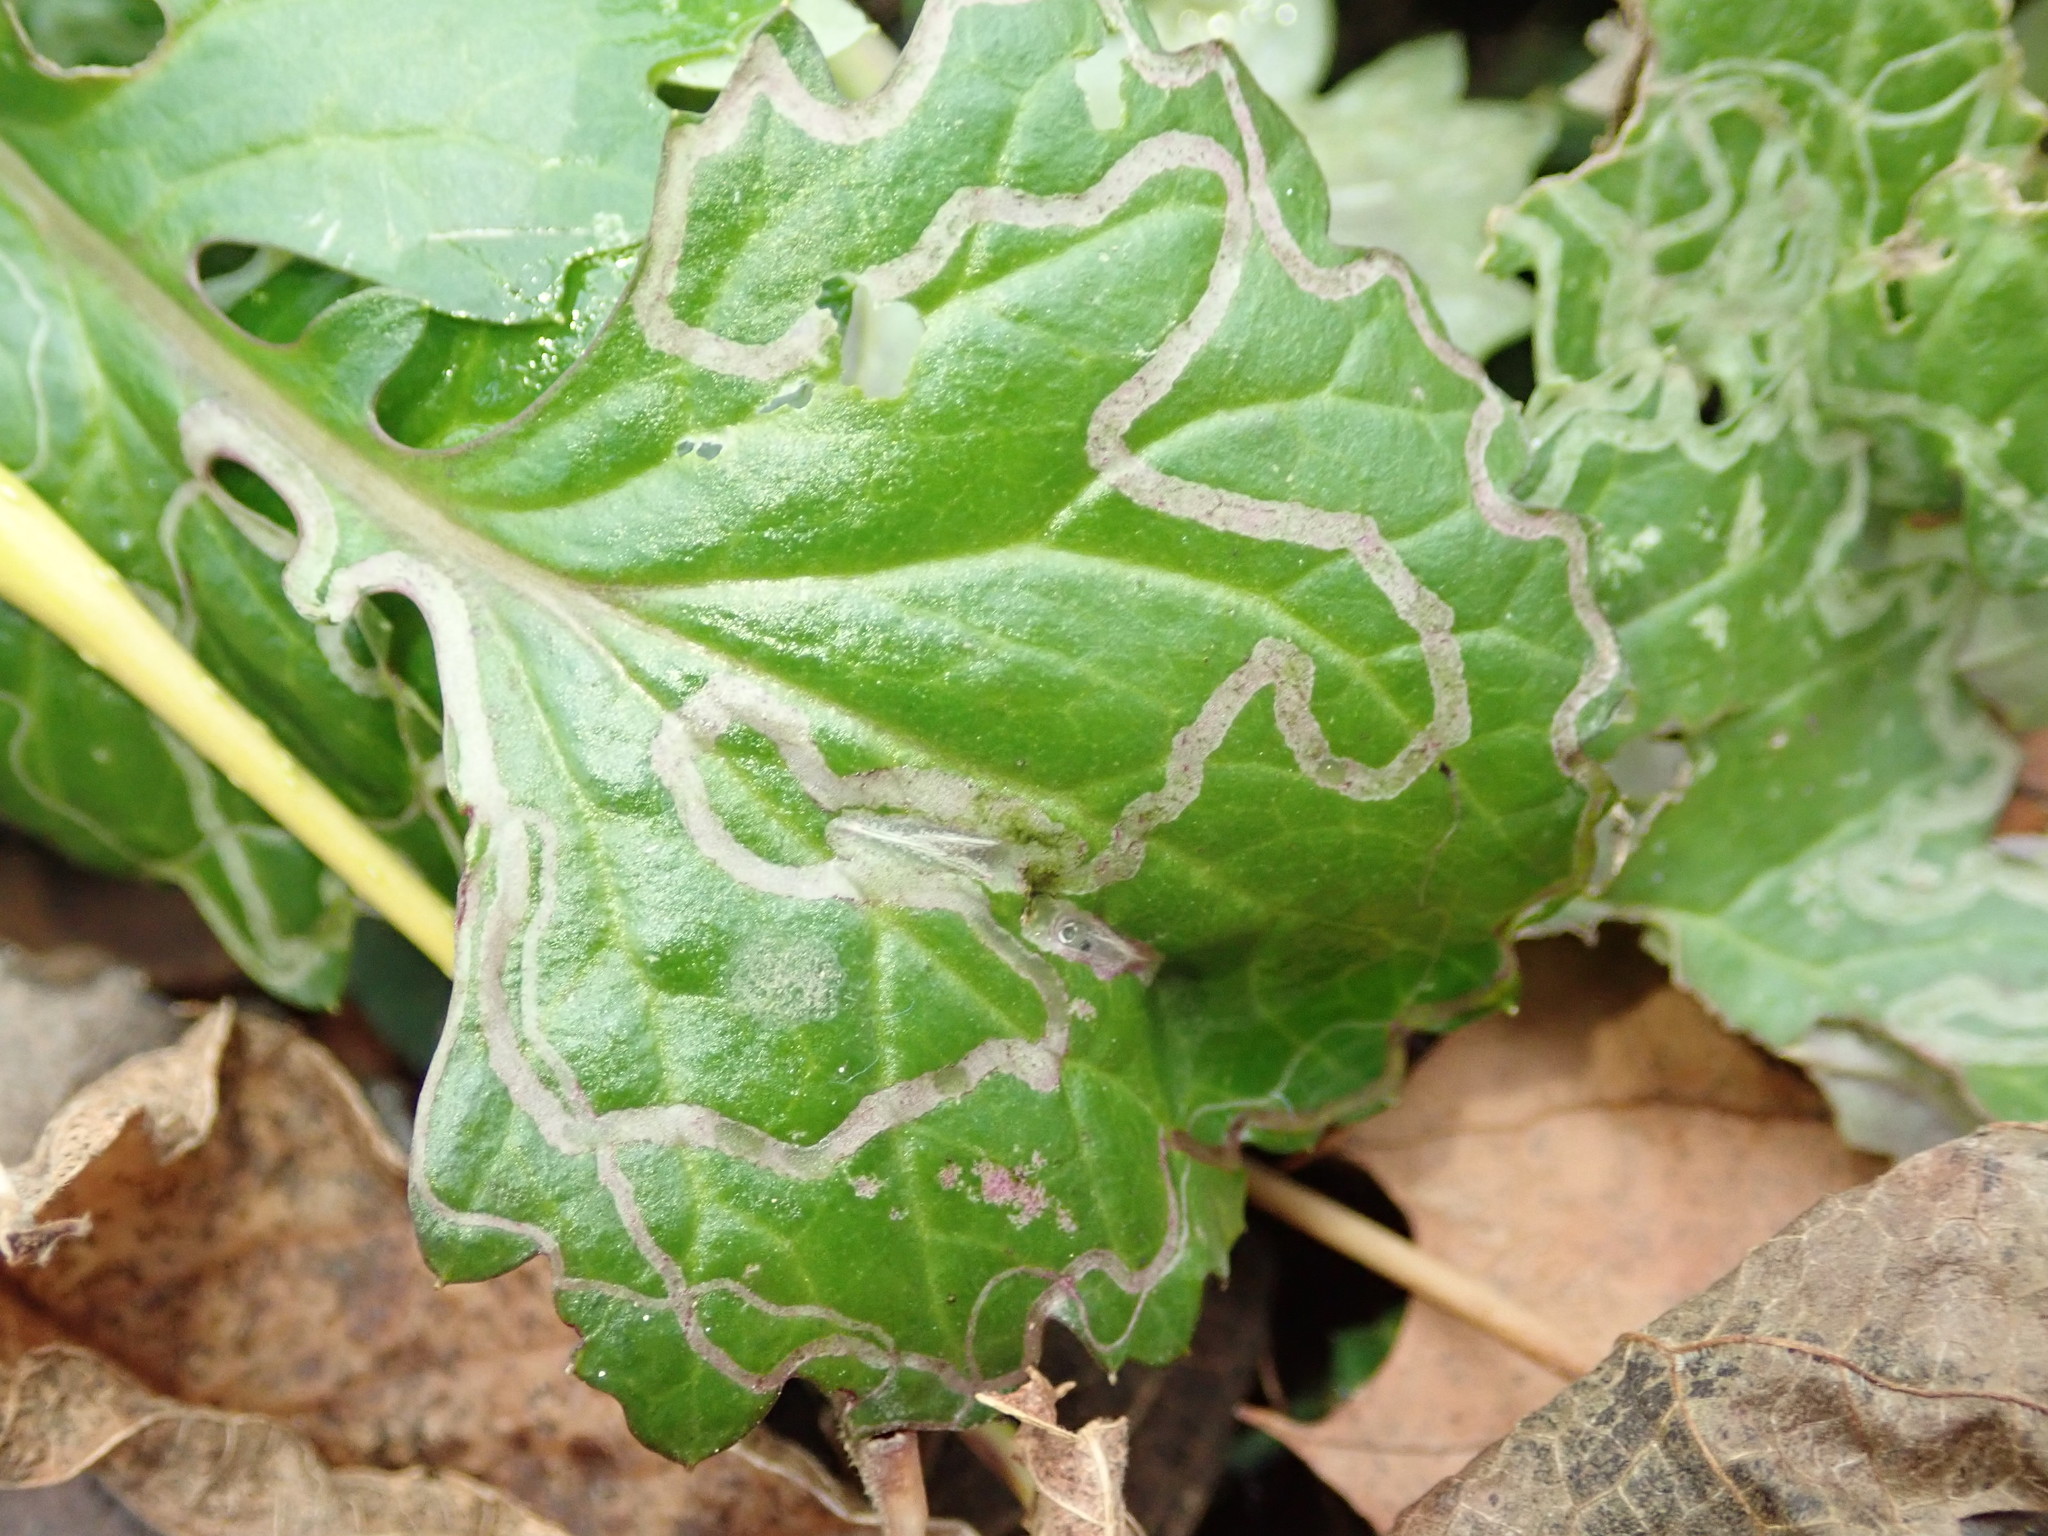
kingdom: Animalia
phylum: Arthropoda
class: Insecta
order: Lepidoptera
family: Gracillariidae
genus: Phyllocnistis
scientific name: Phyllocnistis insignis
